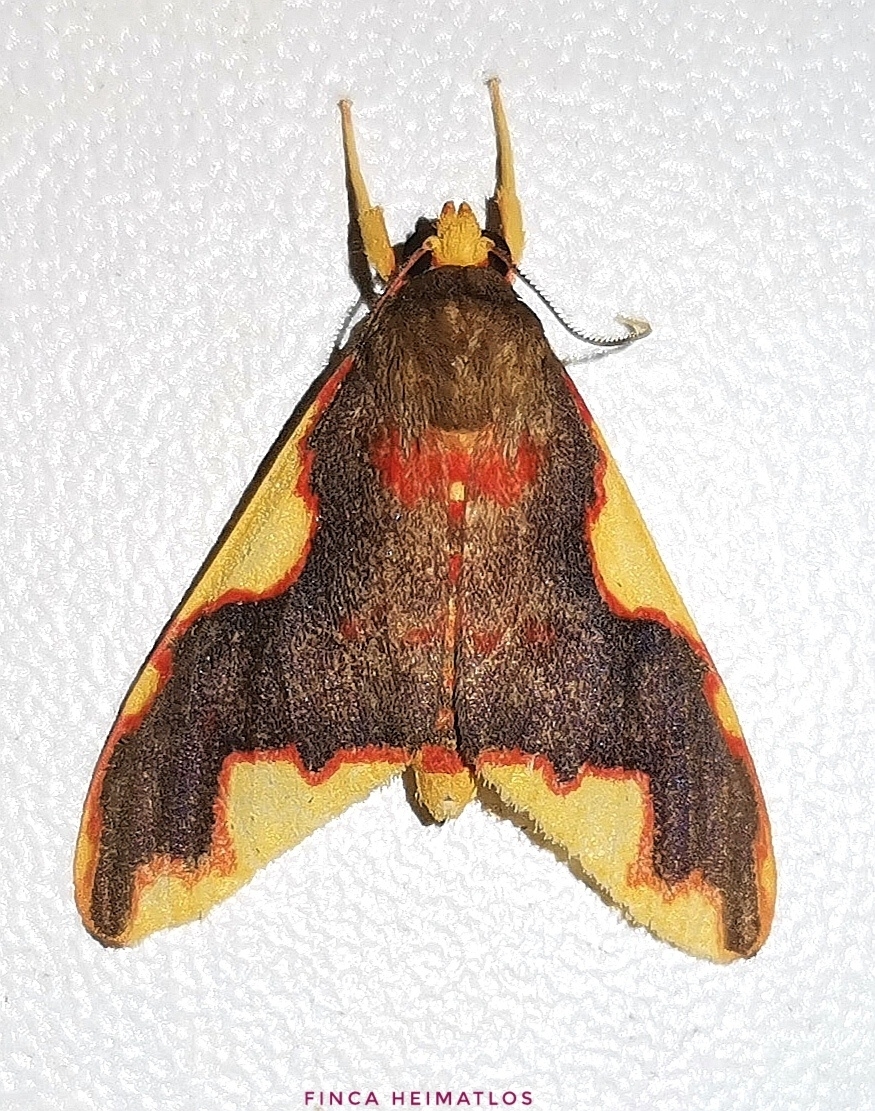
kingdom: Animalia
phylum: Arthropoda
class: Insecta
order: Lepidoptera
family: Erebidae
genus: Hyponerita
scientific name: Hyponerita declivis
